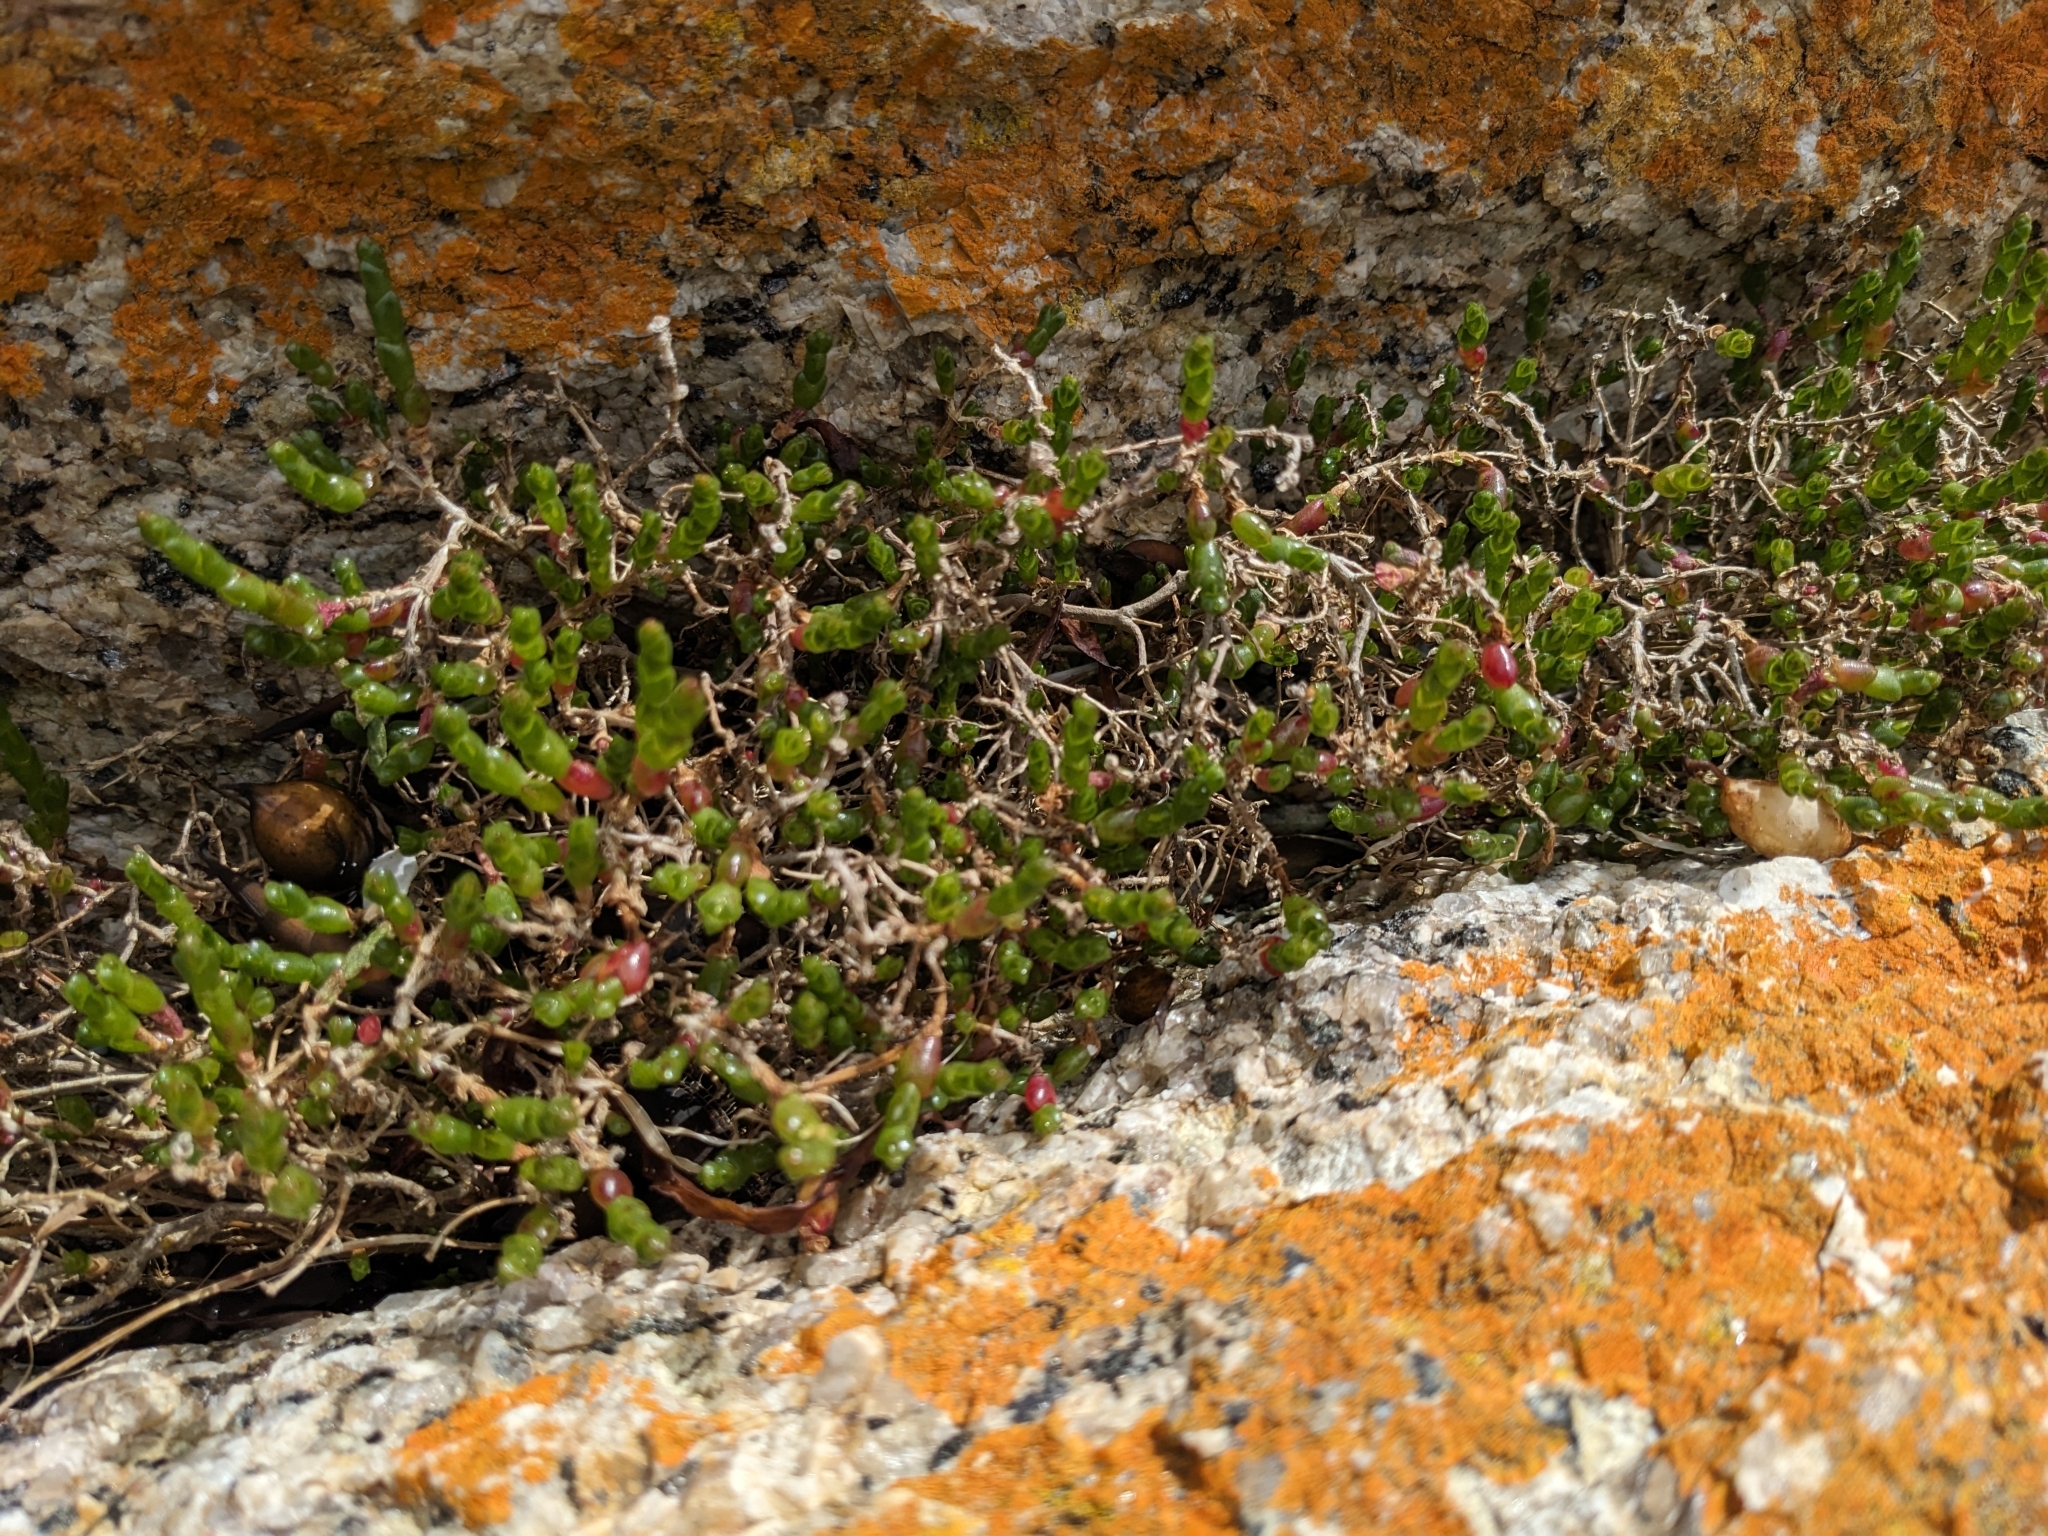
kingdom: Plantae
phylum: Tracheophyta
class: Magnoliopsida
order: Caryophyllales
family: Amaranthaceae
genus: Salicornia
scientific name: Salicornia quinqueflora
